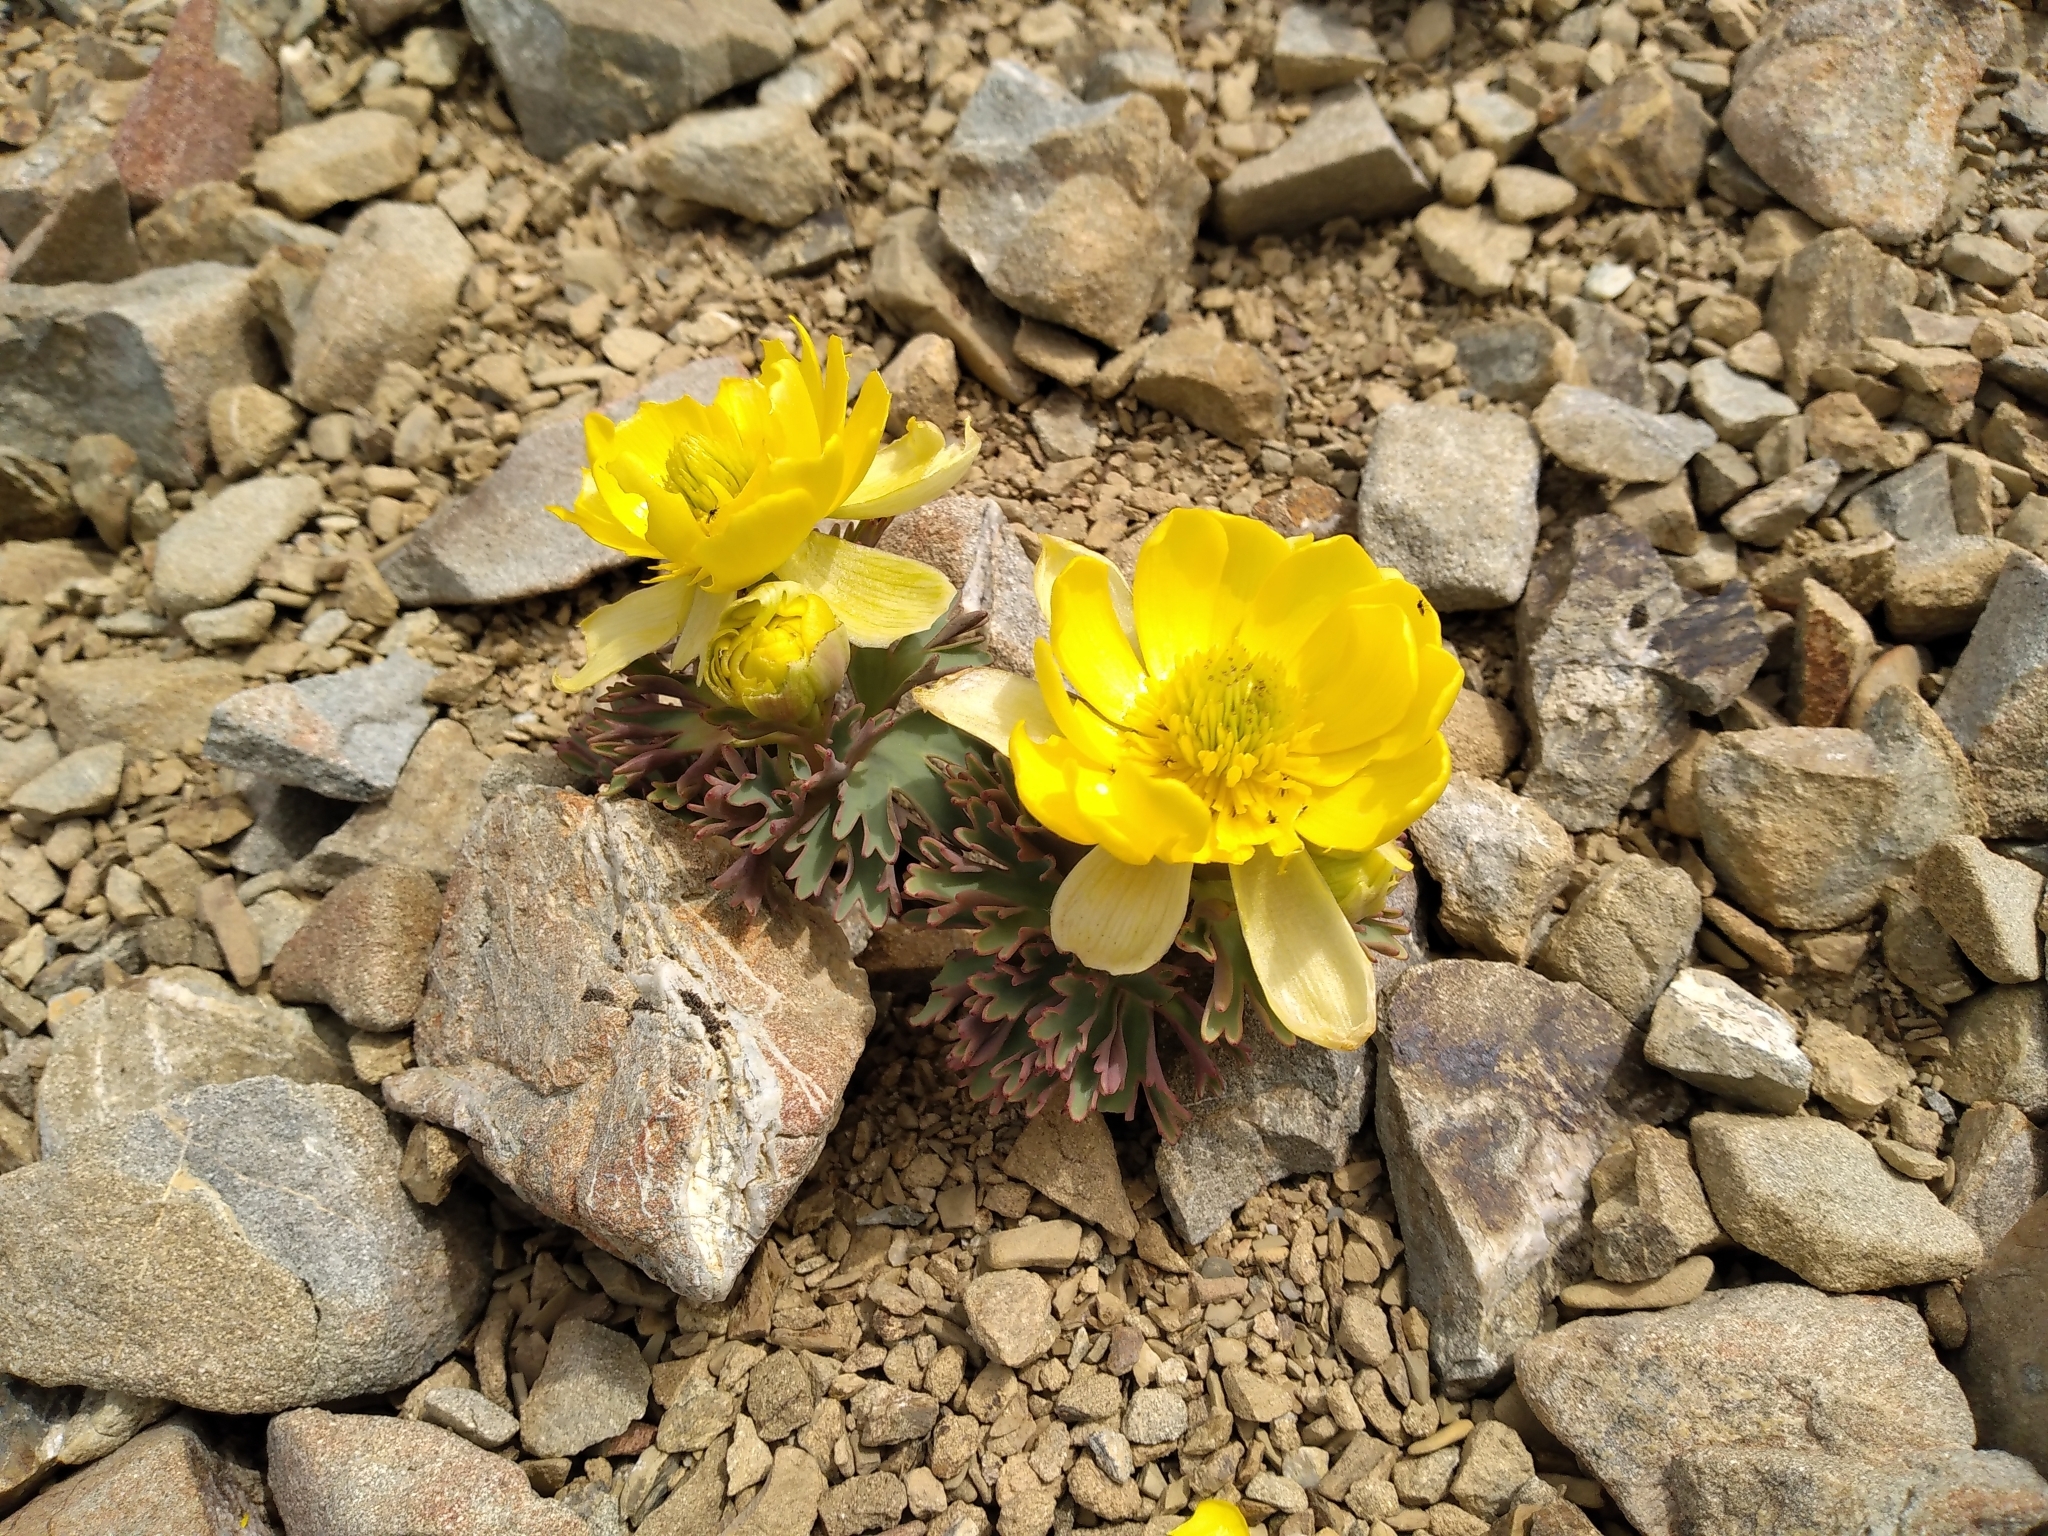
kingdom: Plantae
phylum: Tracheophyta
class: Magnoliopsida
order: Ranunculales
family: Ranunculaceae
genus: Ranunculus
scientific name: Ranunculus acraeus
